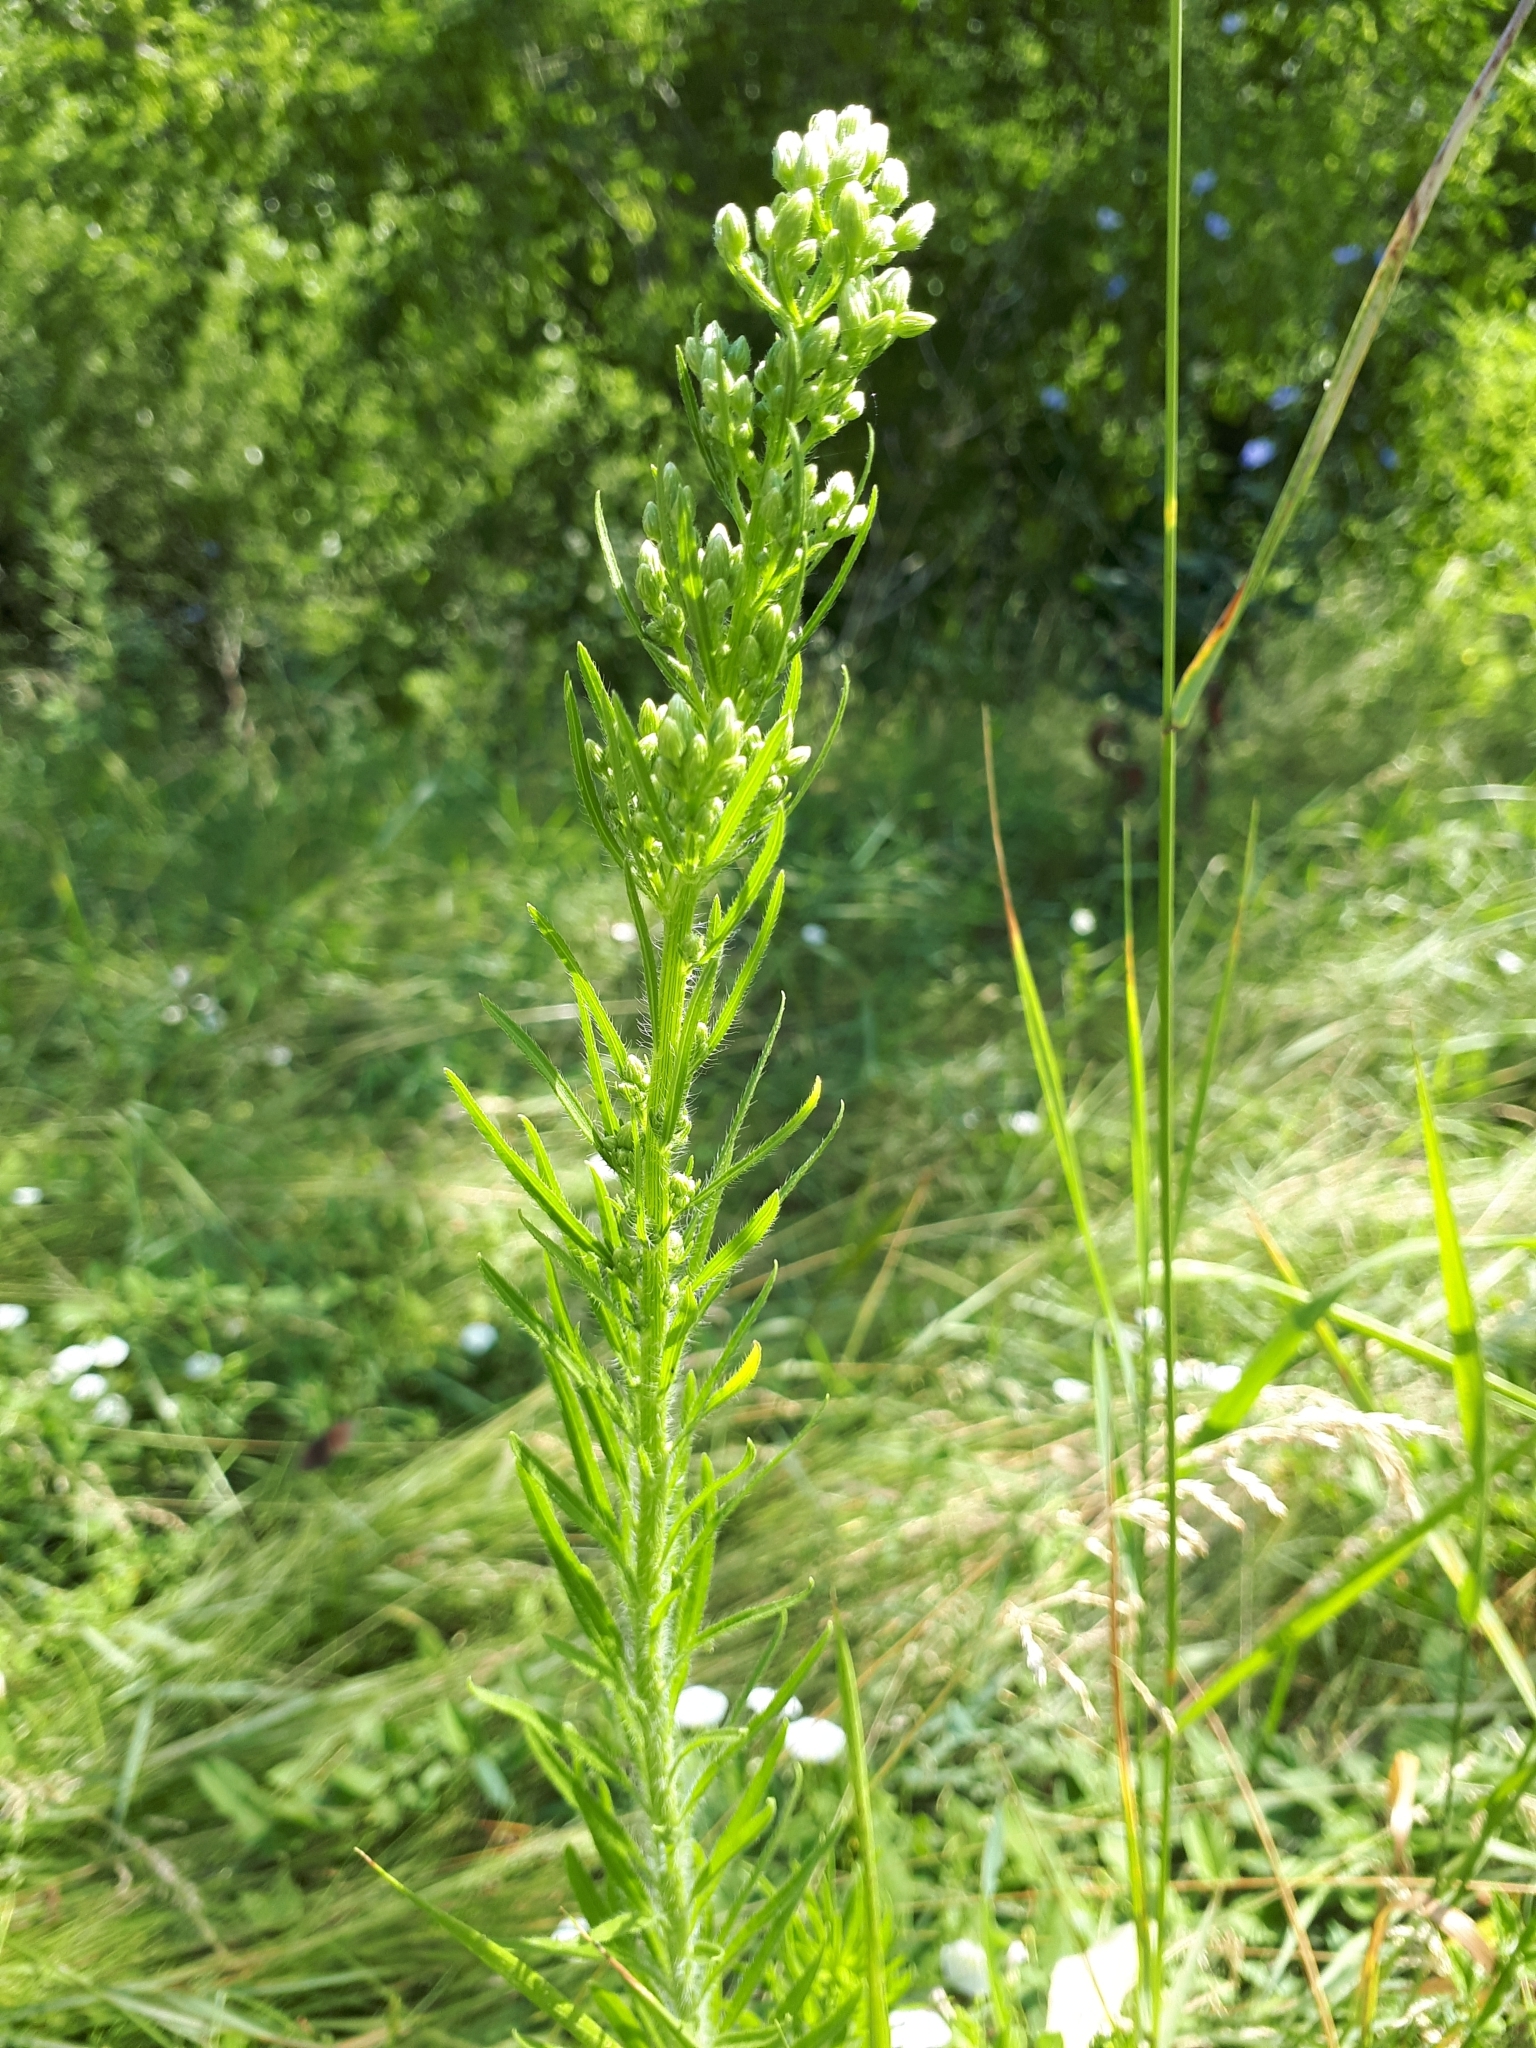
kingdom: Plantae
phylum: Tracheophyta
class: Magnoliopsida
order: Asterales
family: Asteraceae
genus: Erigeron
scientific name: Erigeron canadensis
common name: Canadian fleabane
